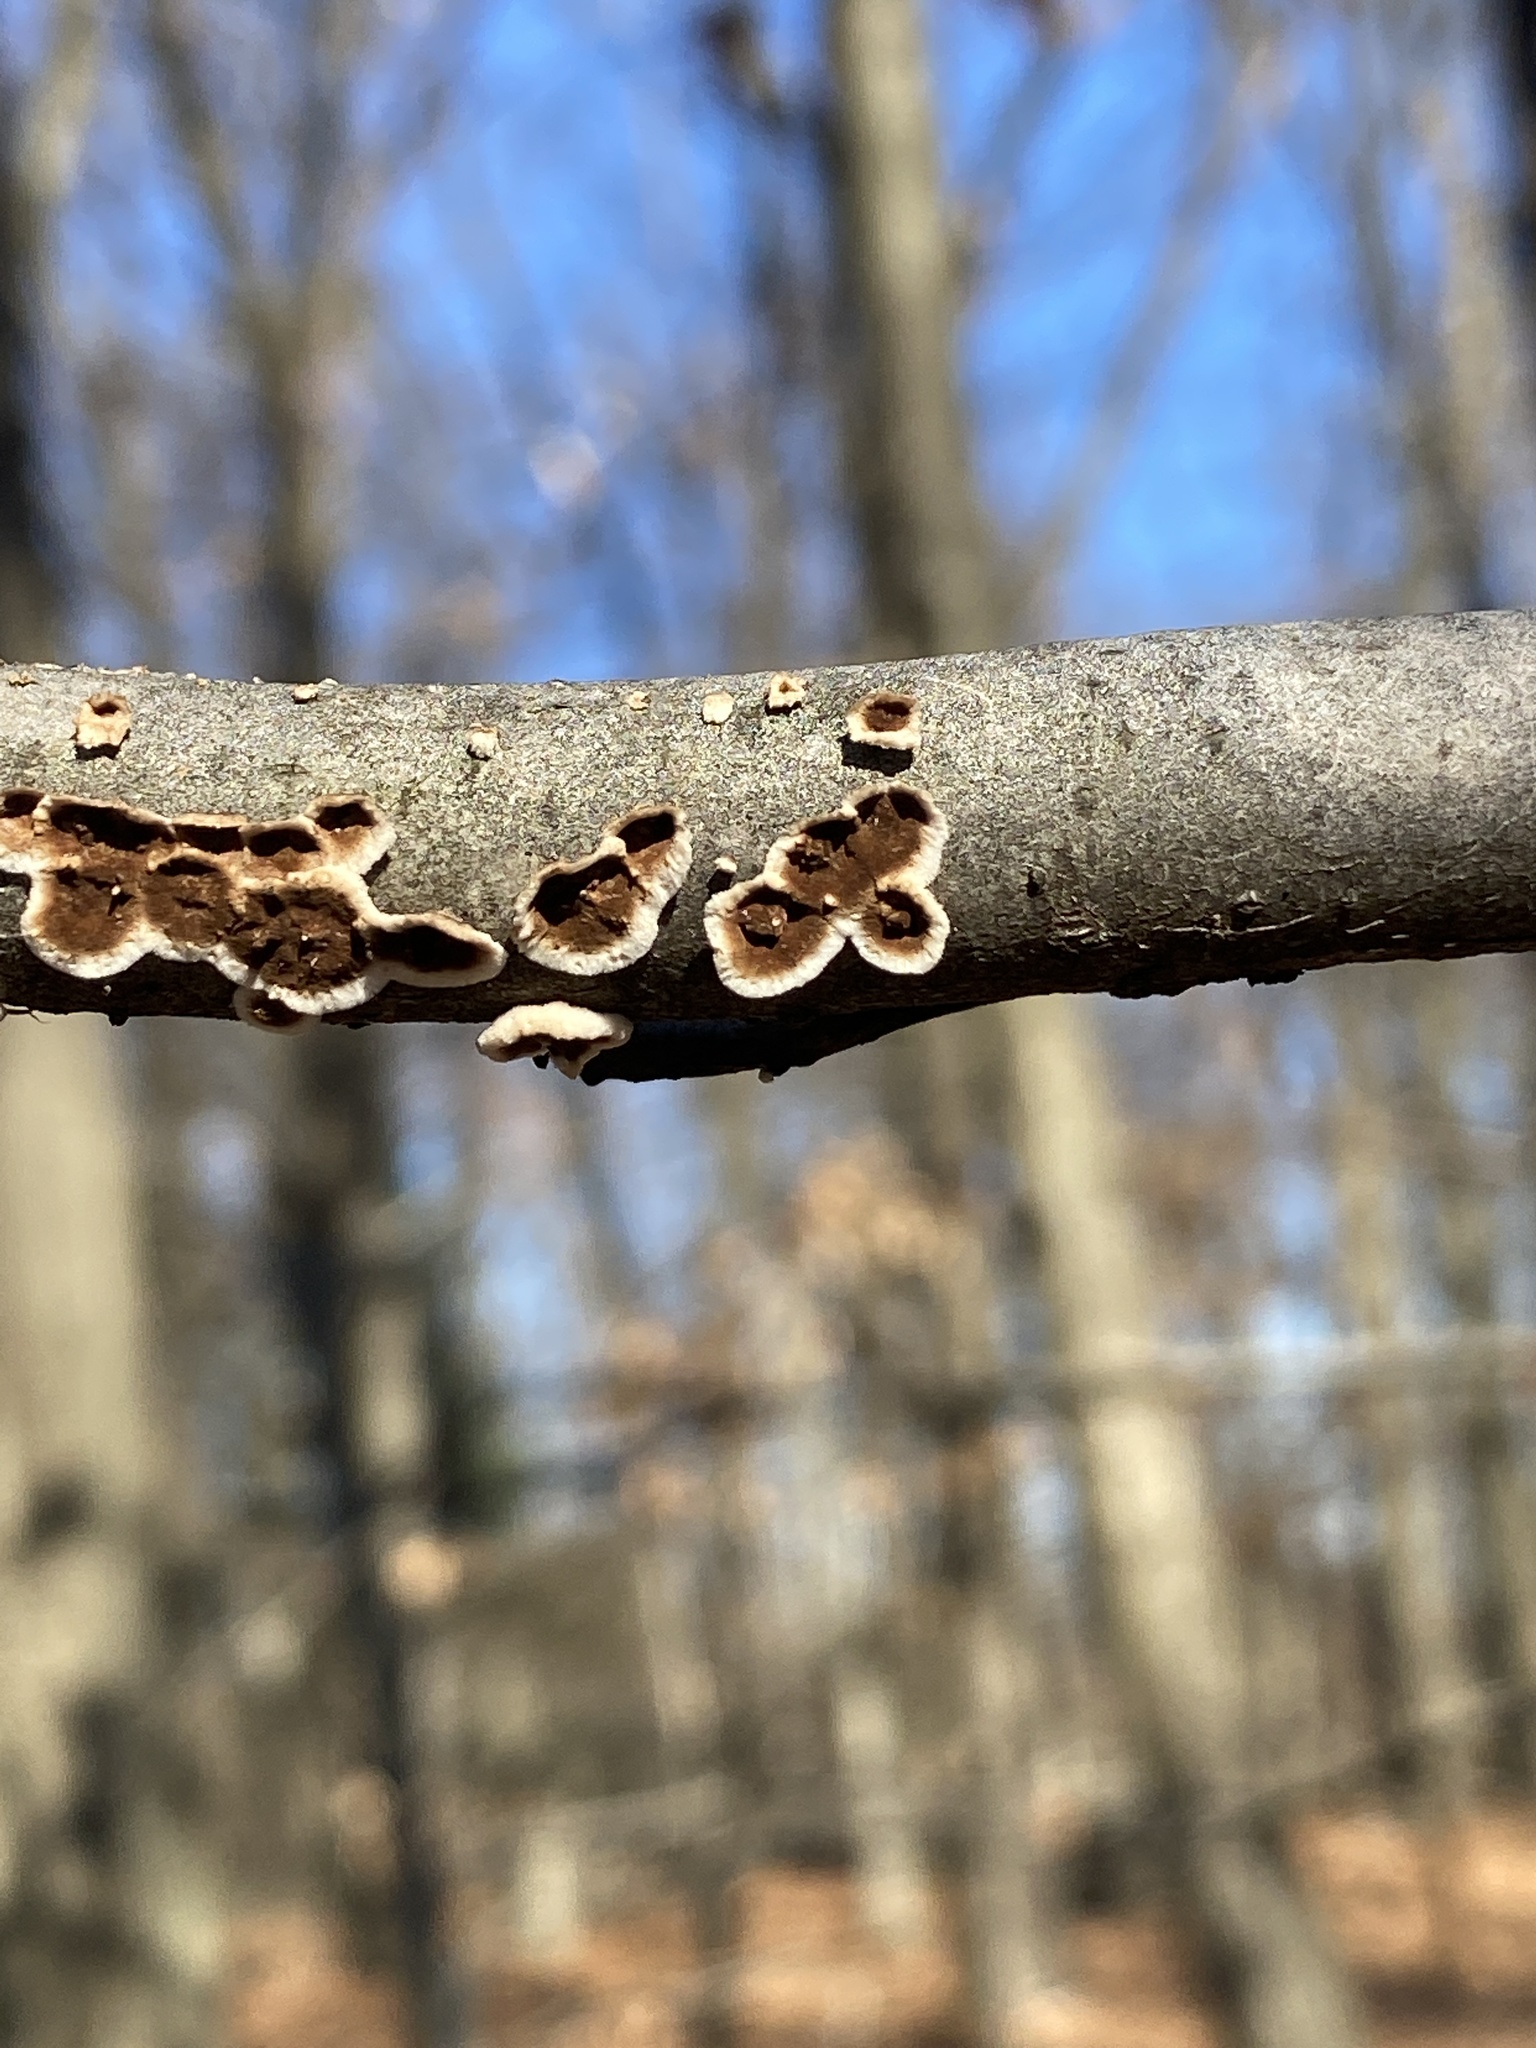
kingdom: Fungi
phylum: Basidiomycota
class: Agaricomycetes
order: Russulales
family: Peniophoraceae
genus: Peniophora
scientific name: Peniophora albobadia
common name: Giraffe spots
